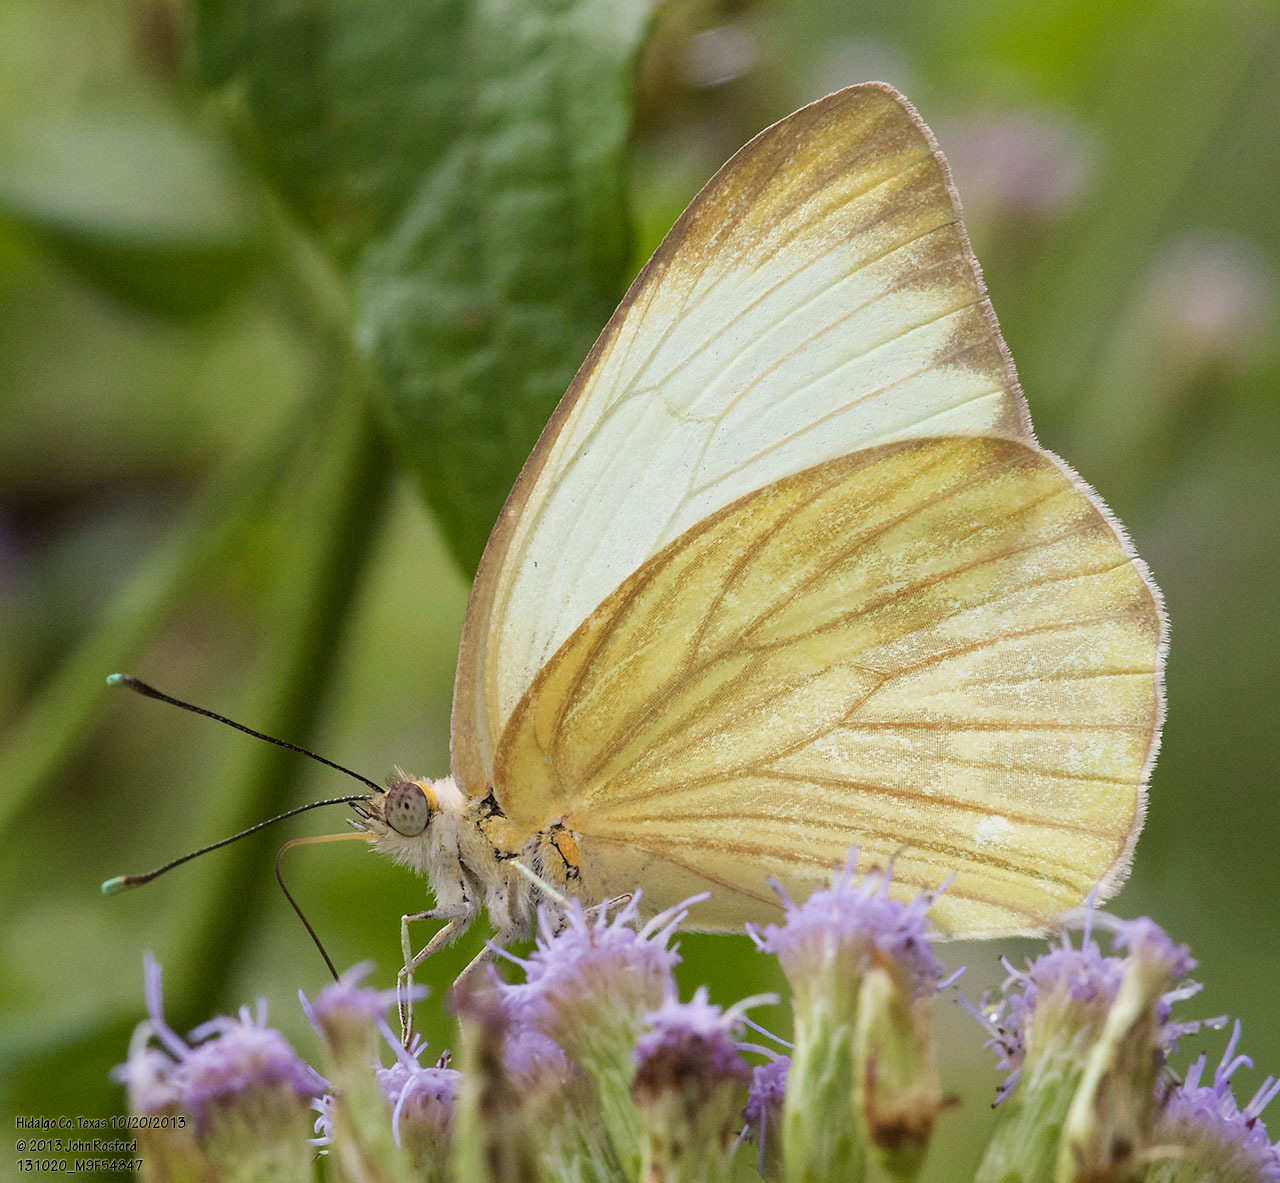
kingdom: Animalia
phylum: Arthropoda
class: Insecta
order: Lepidoptera
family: Pieridae
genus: Ascia
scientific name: Ascia monuste
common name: Great southern white
